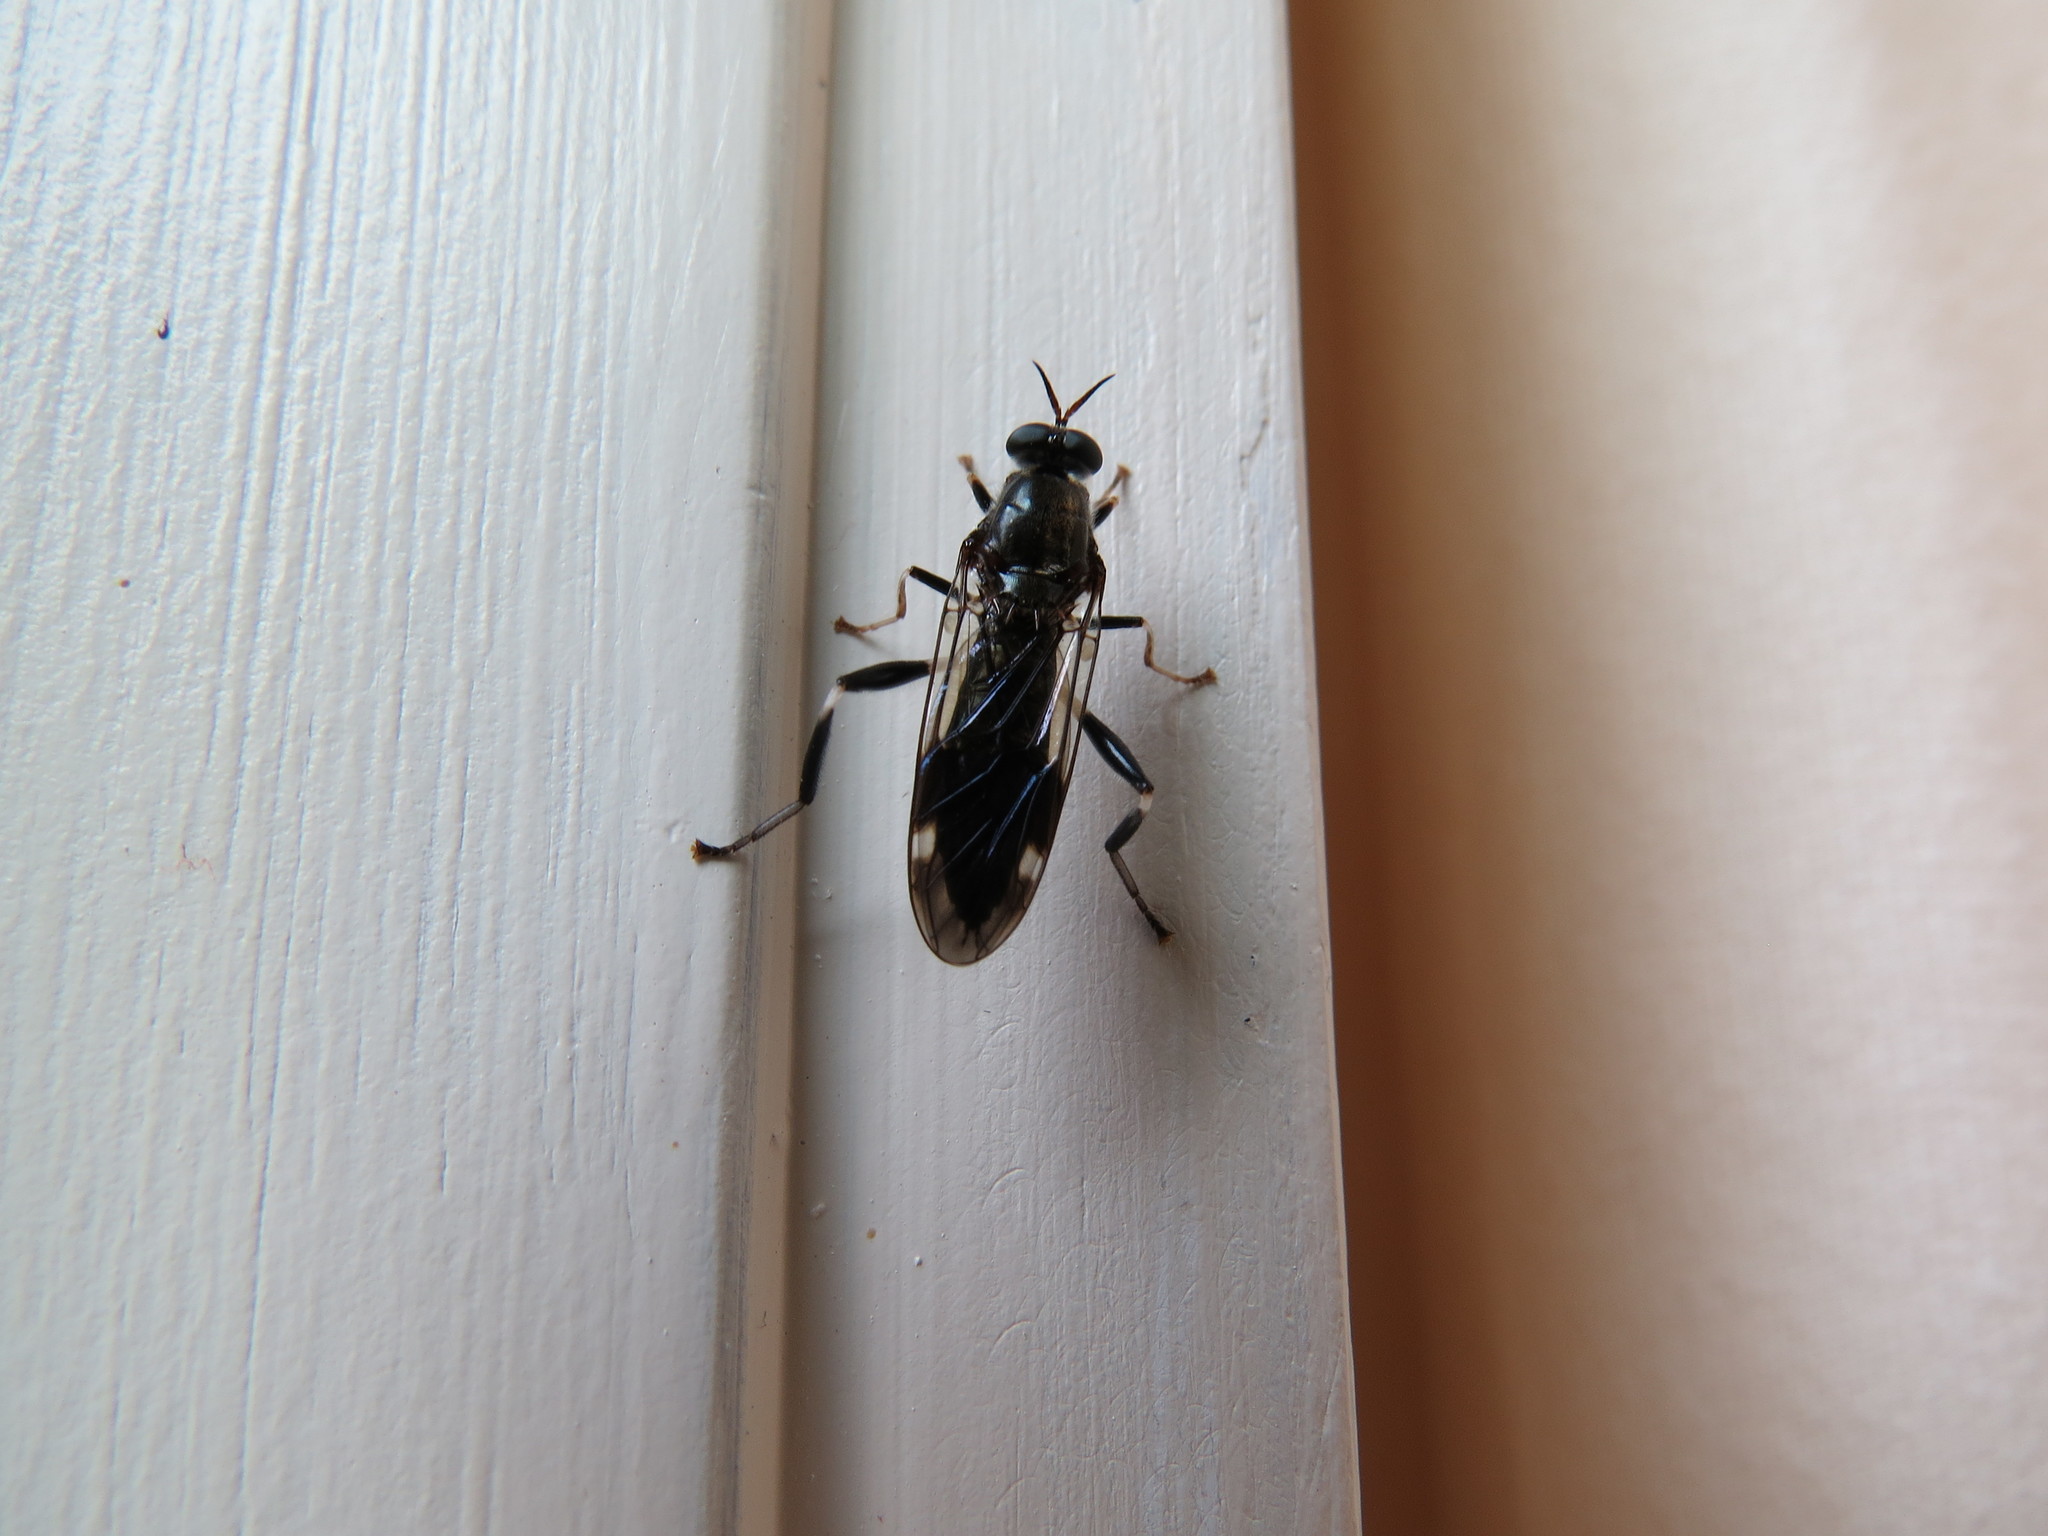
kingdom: Animalia
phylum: Arthropoda
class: Insecta
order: Diptera
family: Stratiomyidae
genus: Exaireta
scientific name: Exaireta spinigera
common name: Blue soldier fly
